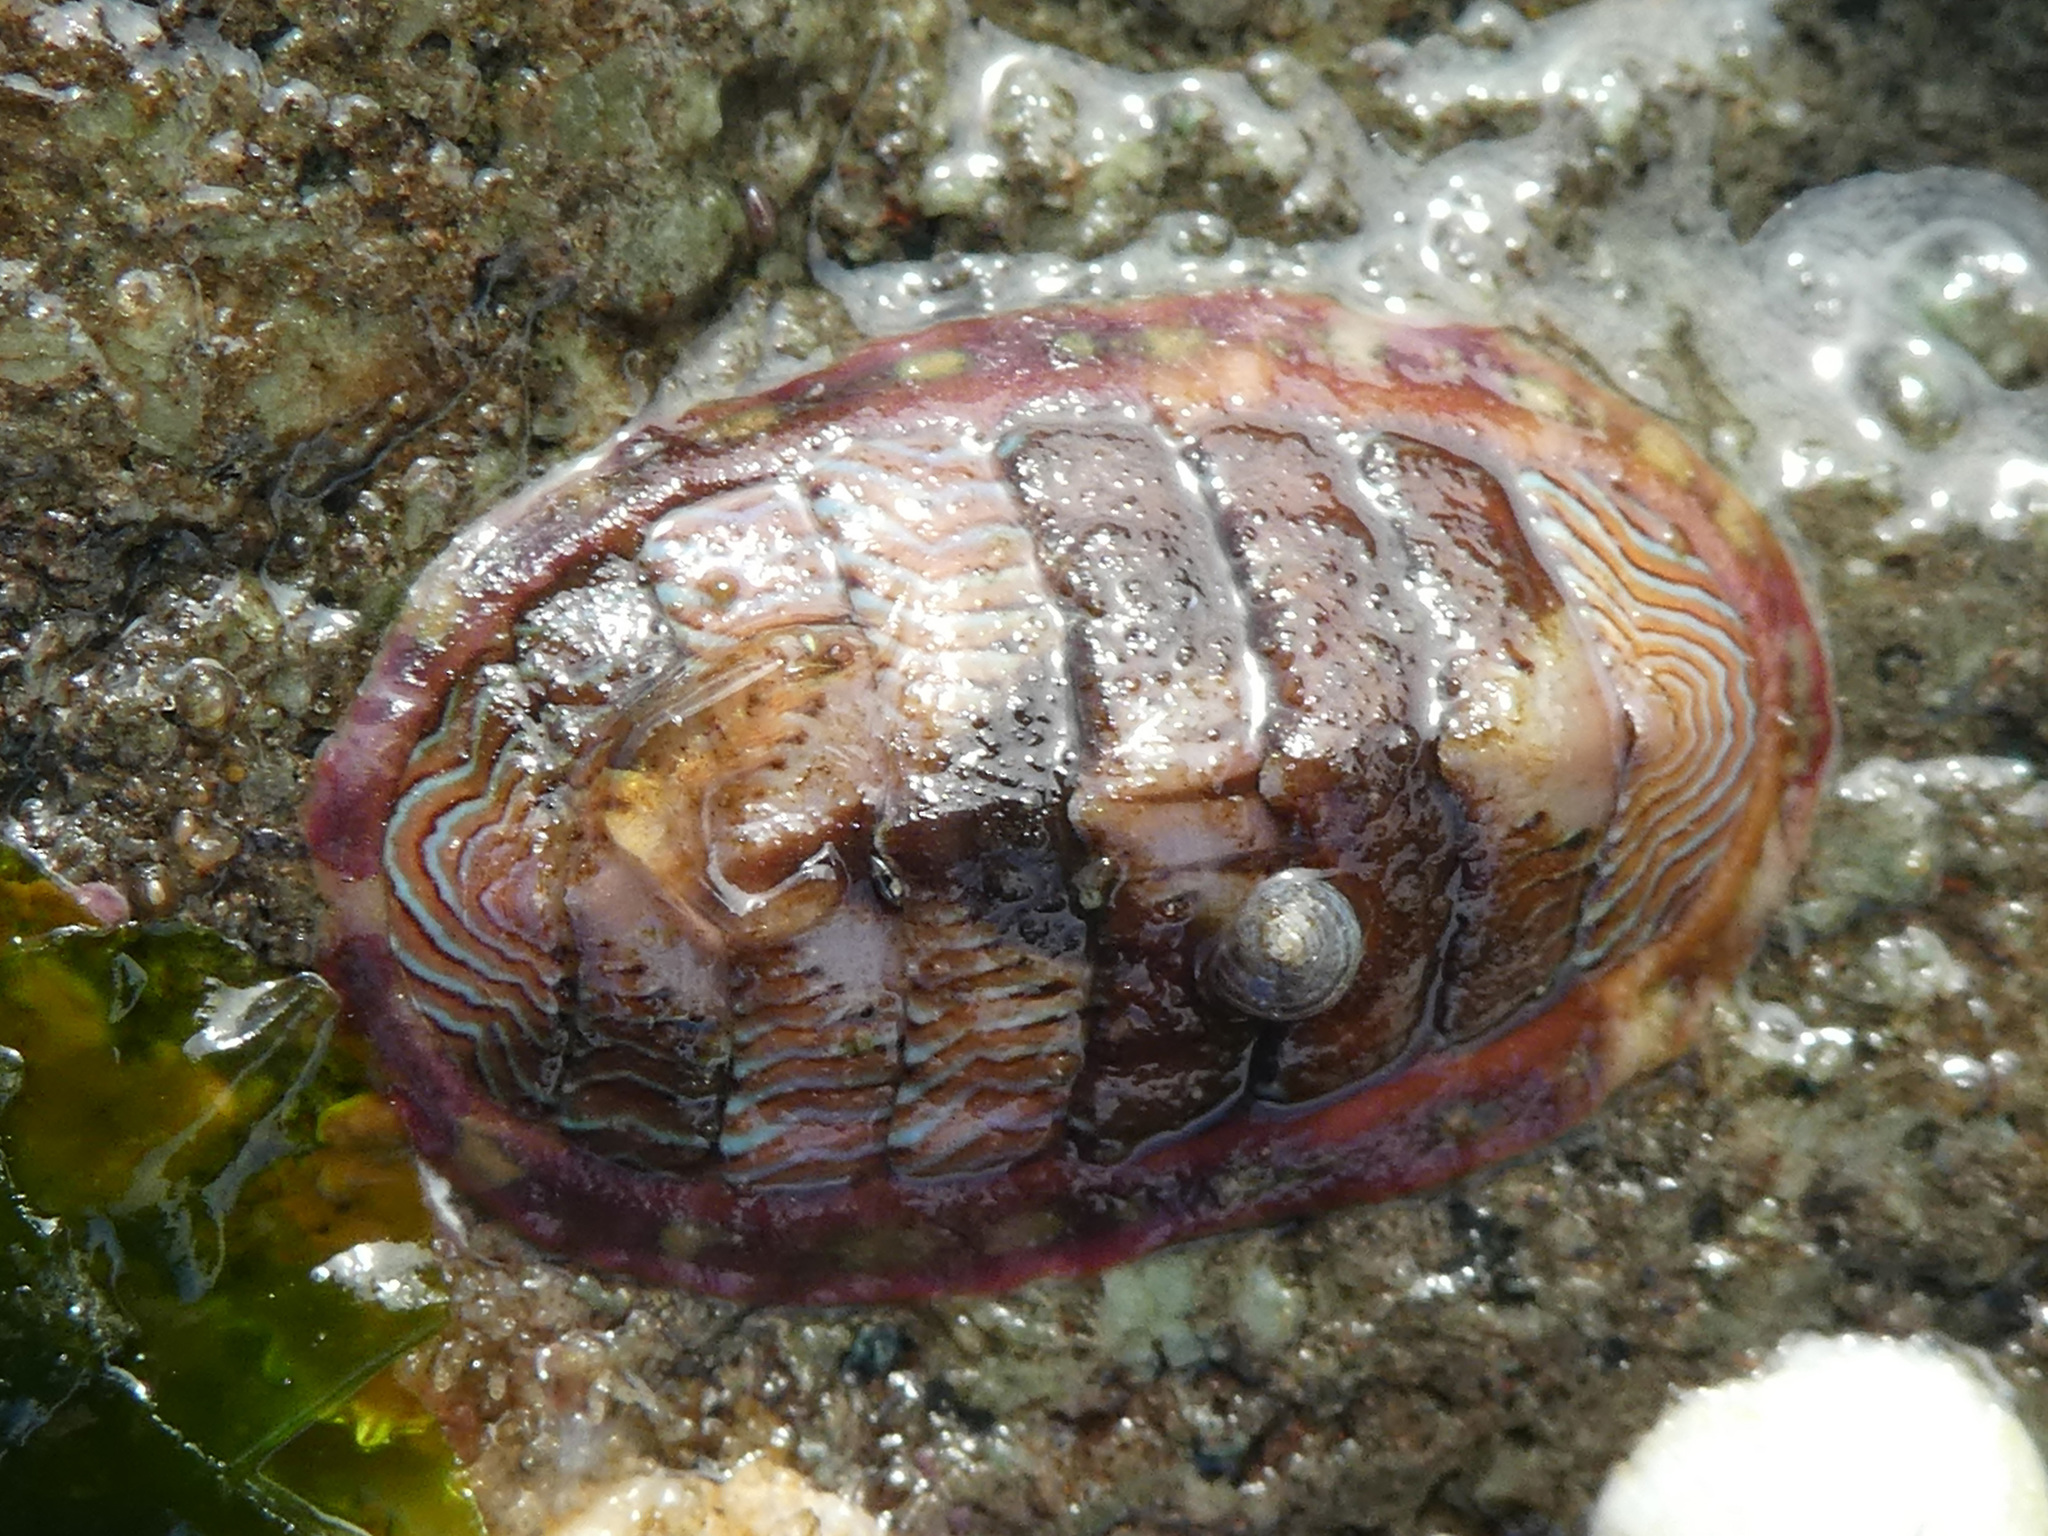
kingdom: Animalia
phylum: Mollusca
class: Polyplacophora
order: Chitonida
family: Tonicellidae
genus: Tonicella
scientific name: Tonicella lineata
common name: Lined chiton
